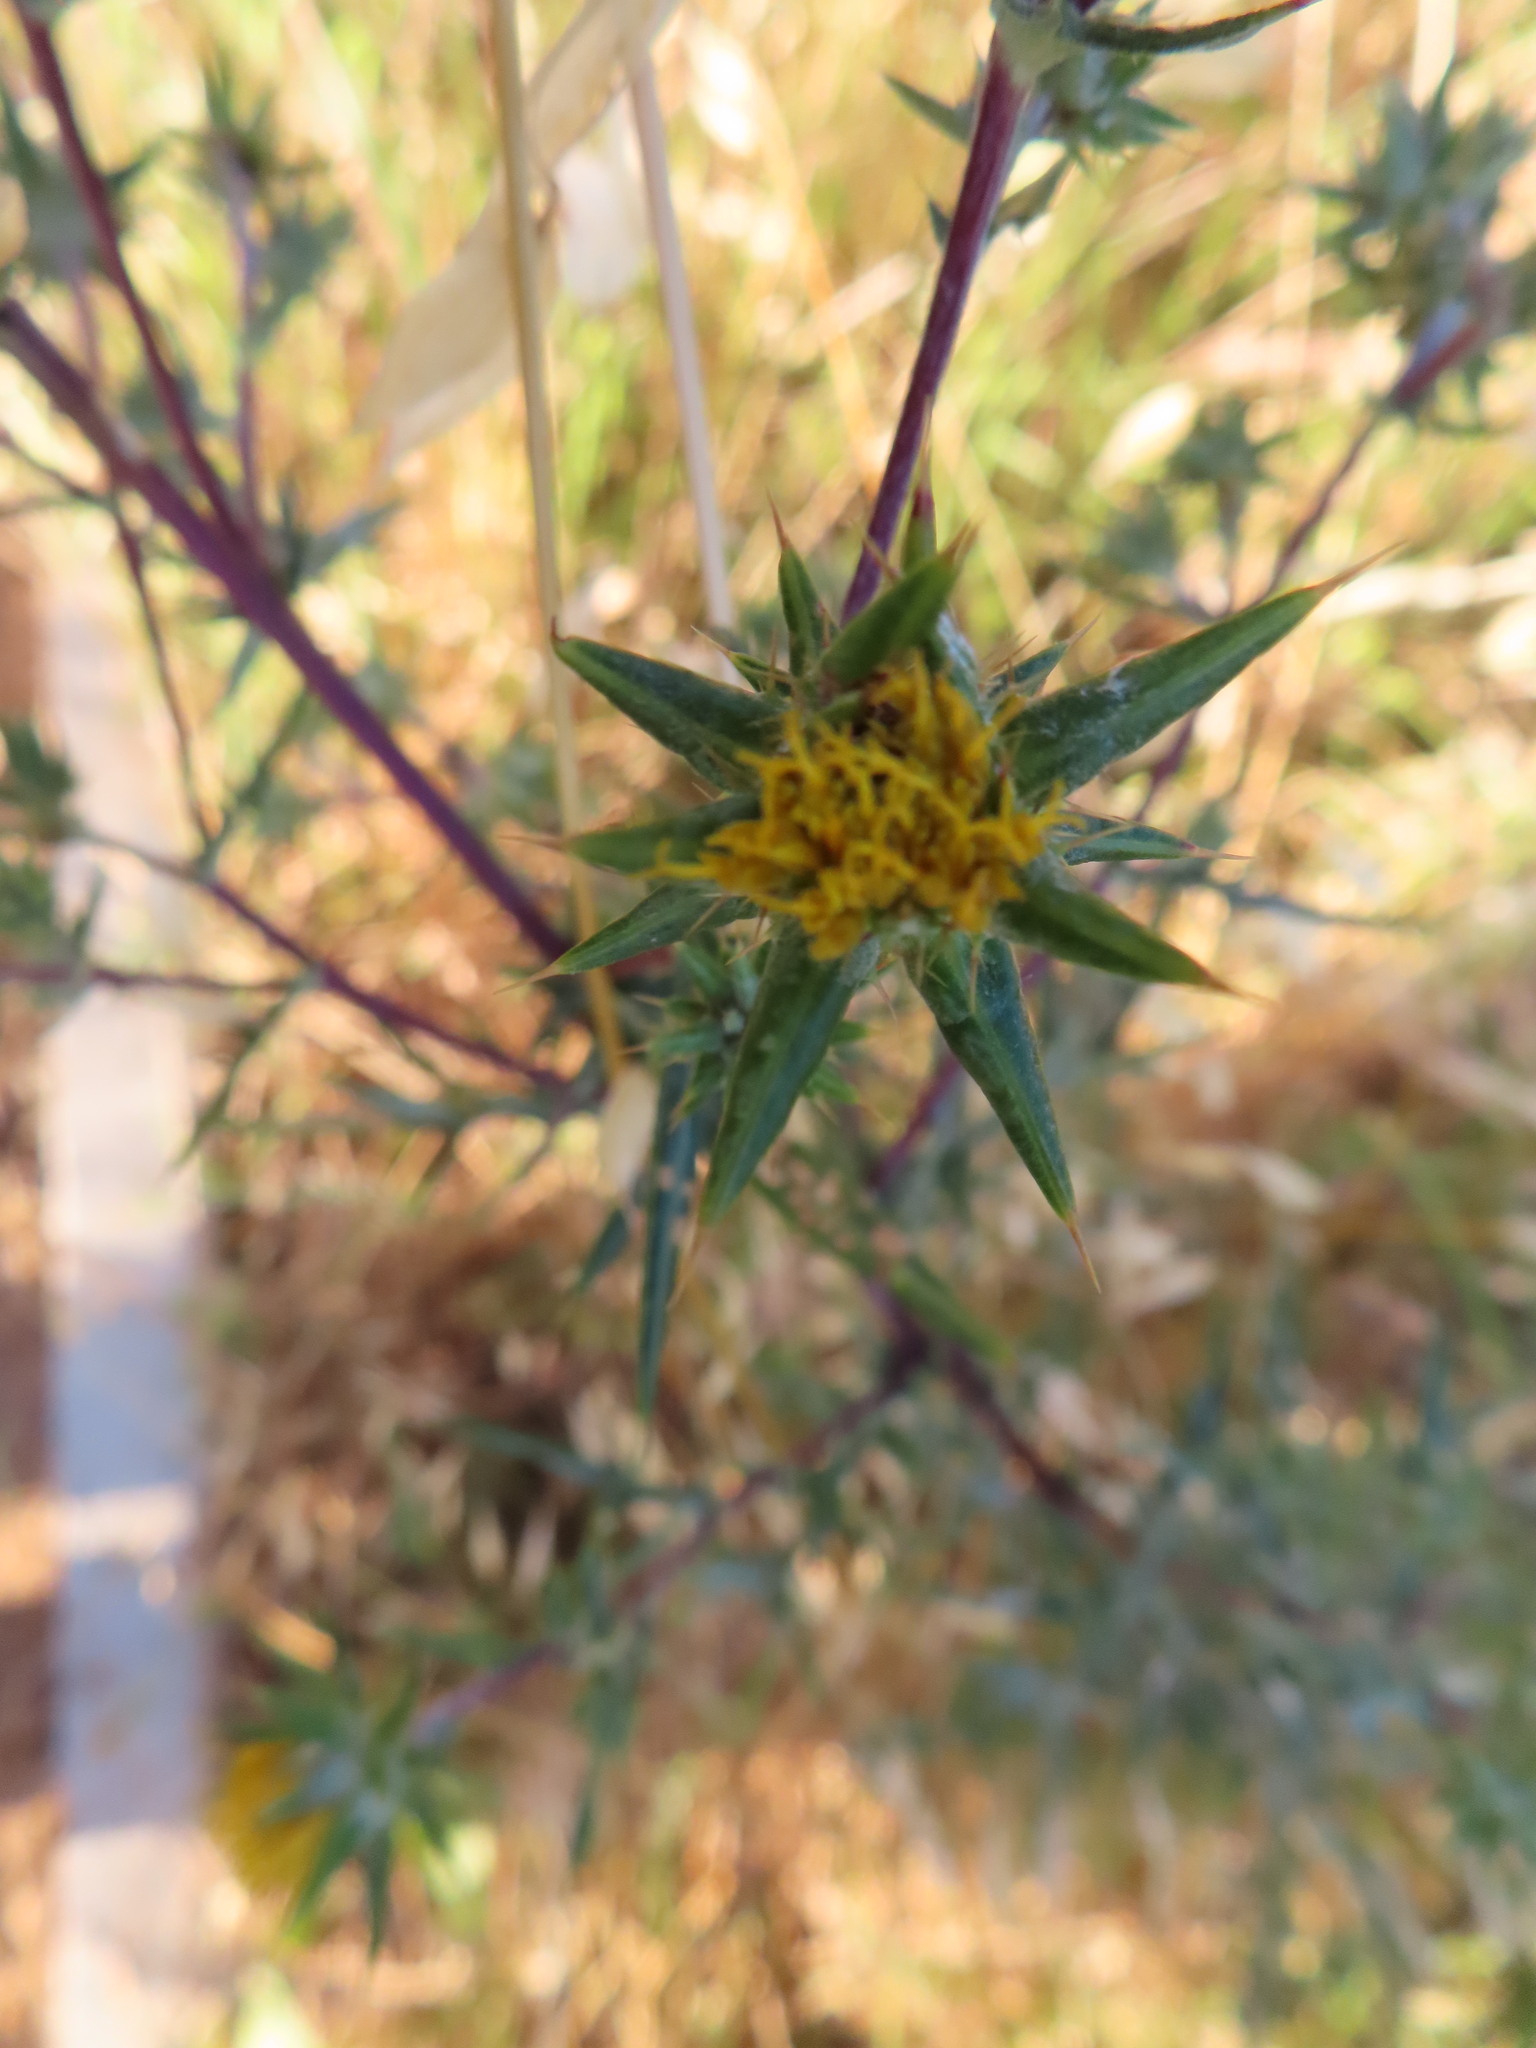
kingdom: Plantae
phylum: Tracheophyta
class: Magnoliopsida
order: Asterales
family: Asteraceae
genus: Berkheya
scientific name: Berkheya rigida
